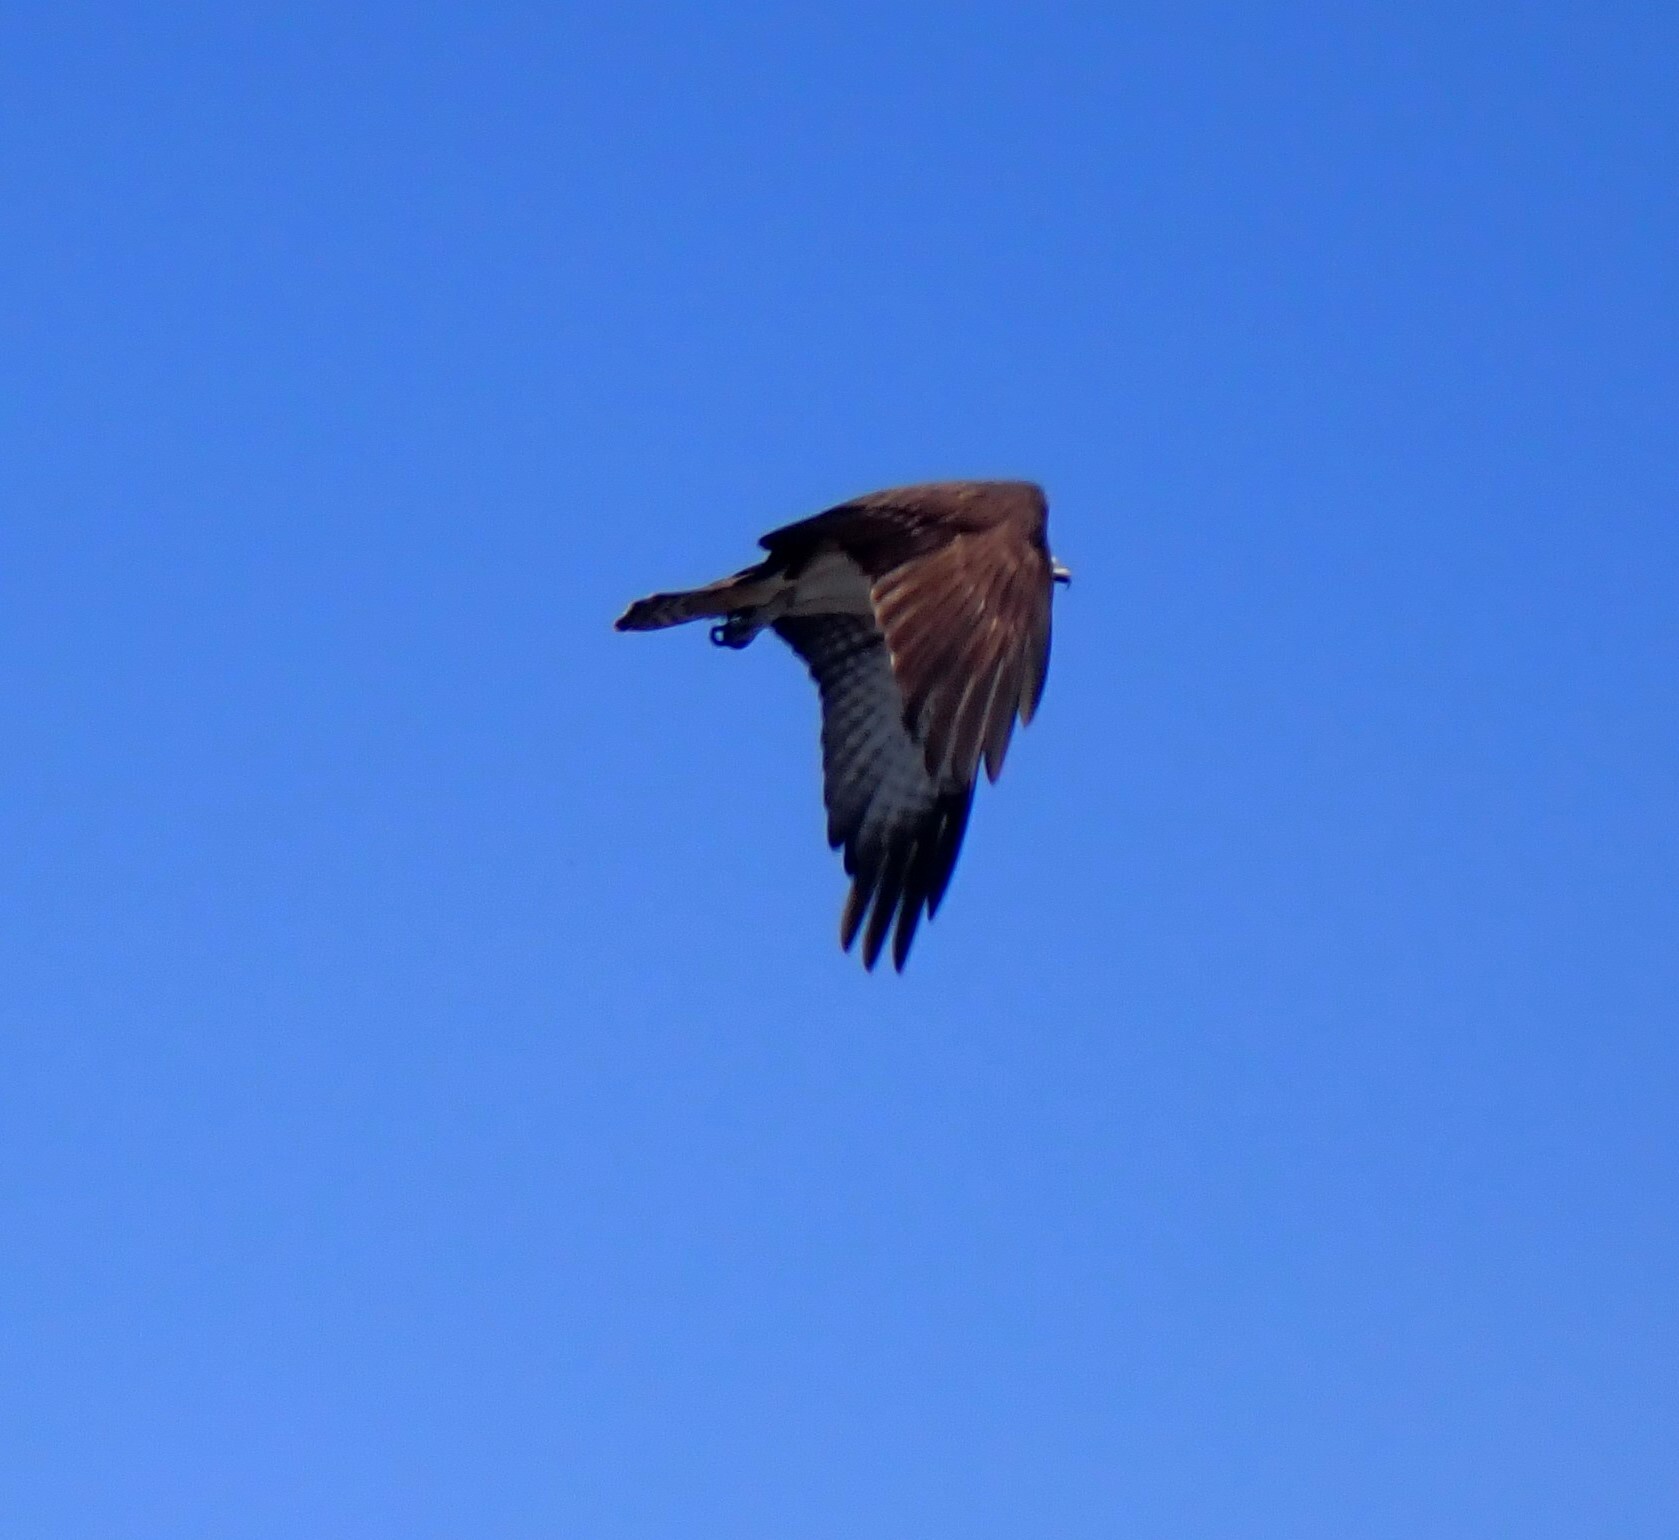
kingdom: Animalia
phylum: Chordata
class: Aves
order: Accipitriformes
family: Pandionidae
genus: Pandion
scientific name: Pandion haliaetus
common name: Osprey
